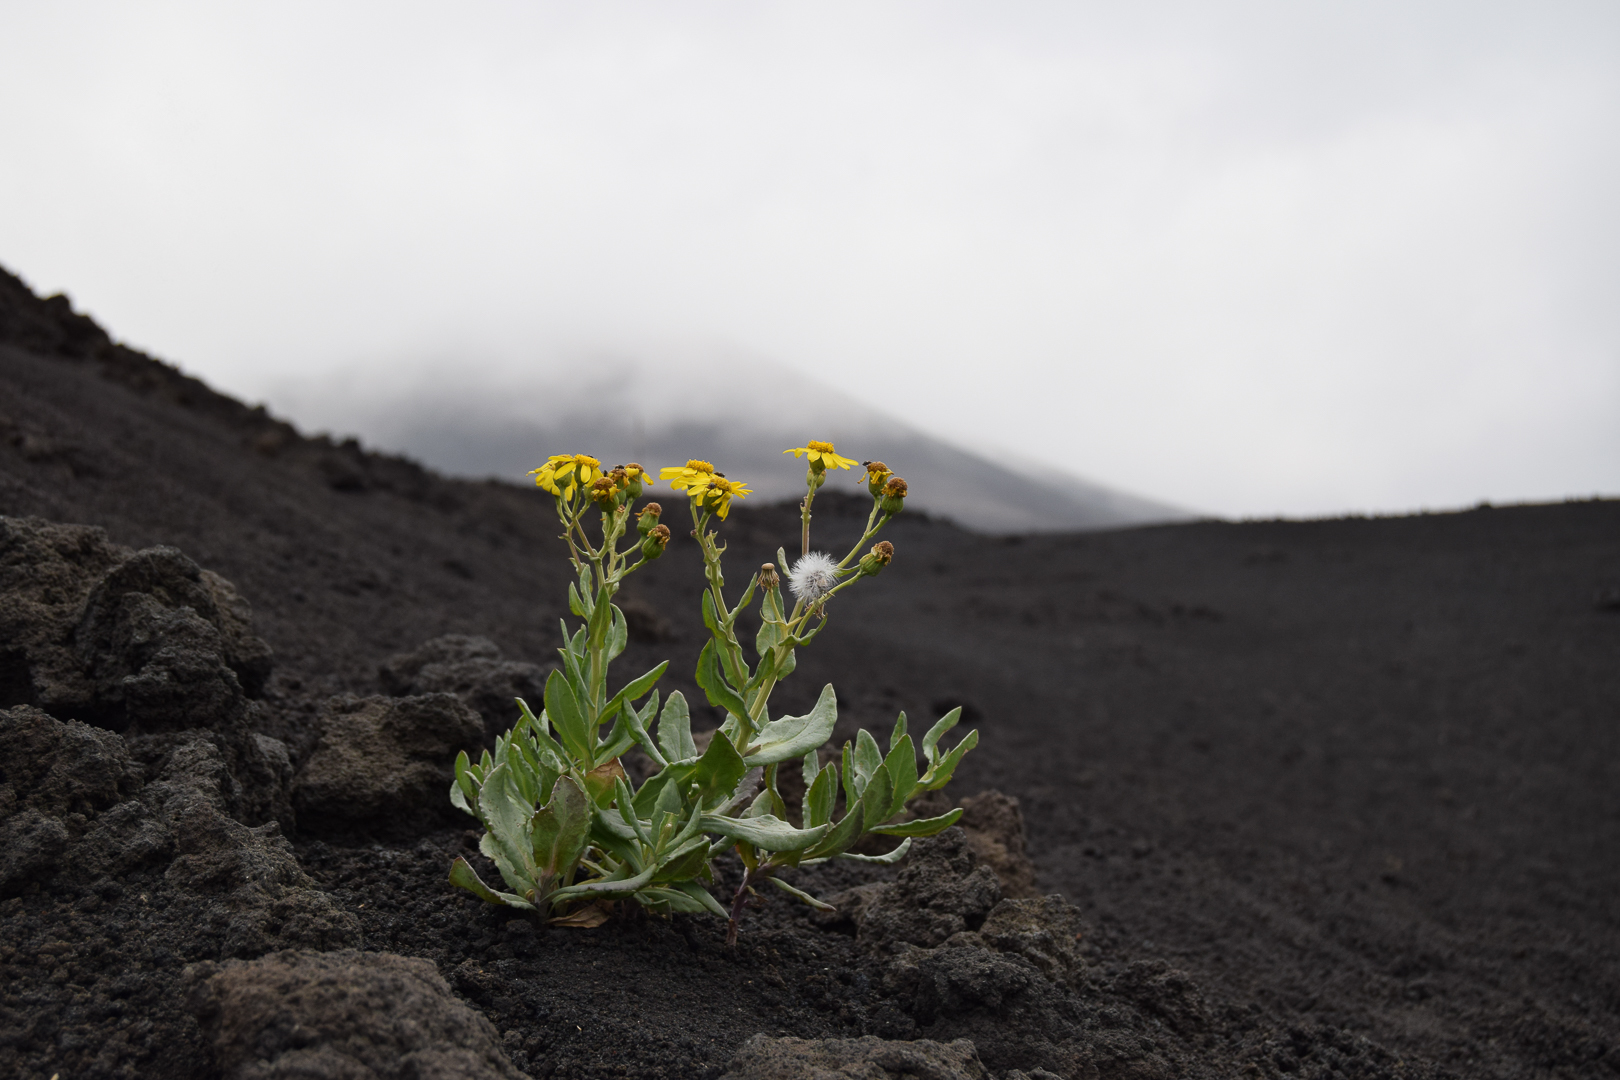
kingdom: Plantae
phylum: Tracheophyta
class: Magnoliopsida
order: Asterales
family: Asteraceae
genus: Senecio
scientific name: Senecio squalidus
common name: Oxford ragwort
